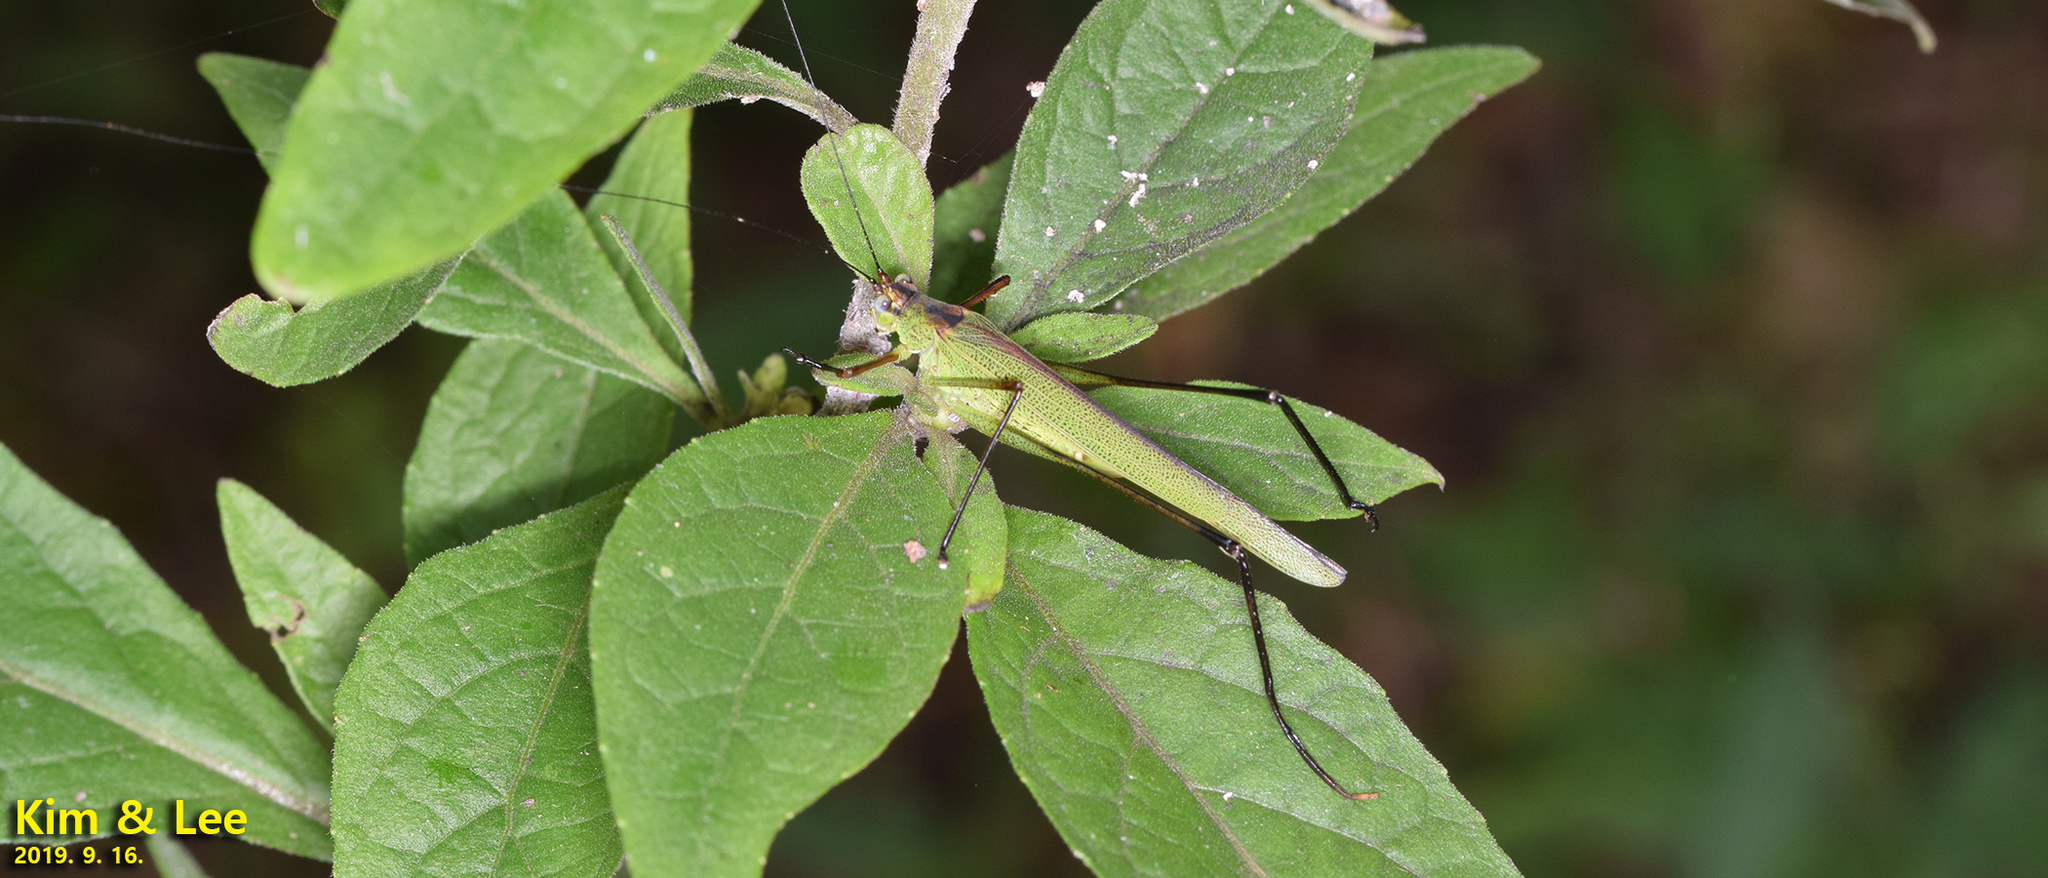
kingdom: Animalia
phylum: Arthropoda
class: Insecta
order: Orthoptera
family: Tettigoniidae
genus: Phaneroptera
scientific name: Phaneroptera nigroantennata
